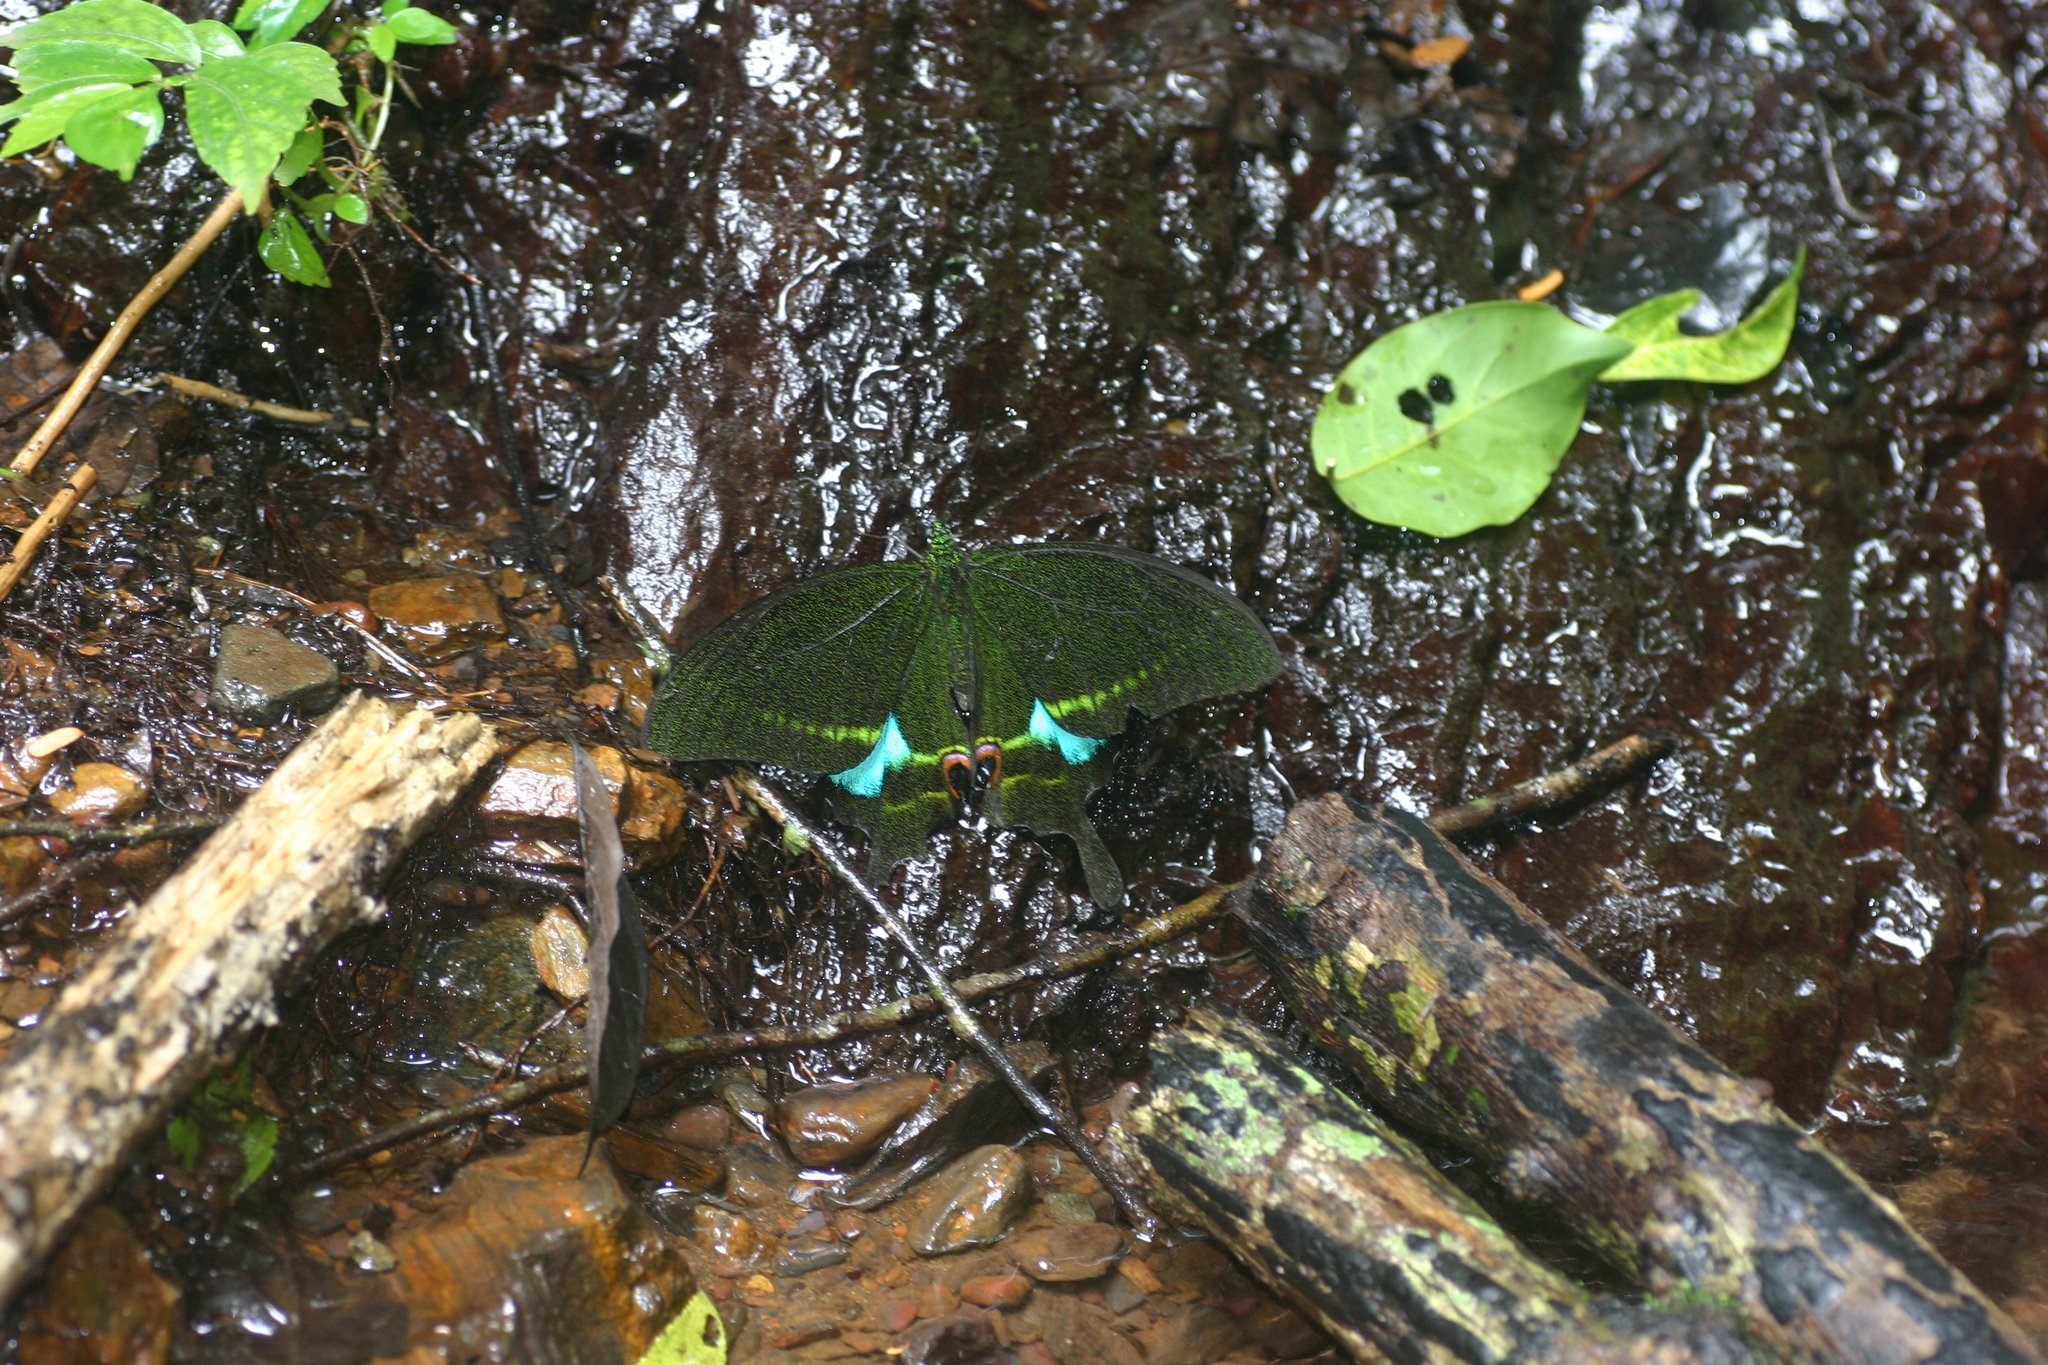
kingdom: Animalia
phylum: Arthropoda
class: Insecta
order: Lepidoptera
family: Papilionidae
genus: Papilio
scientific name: Papilio paris
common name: Paris peacock
